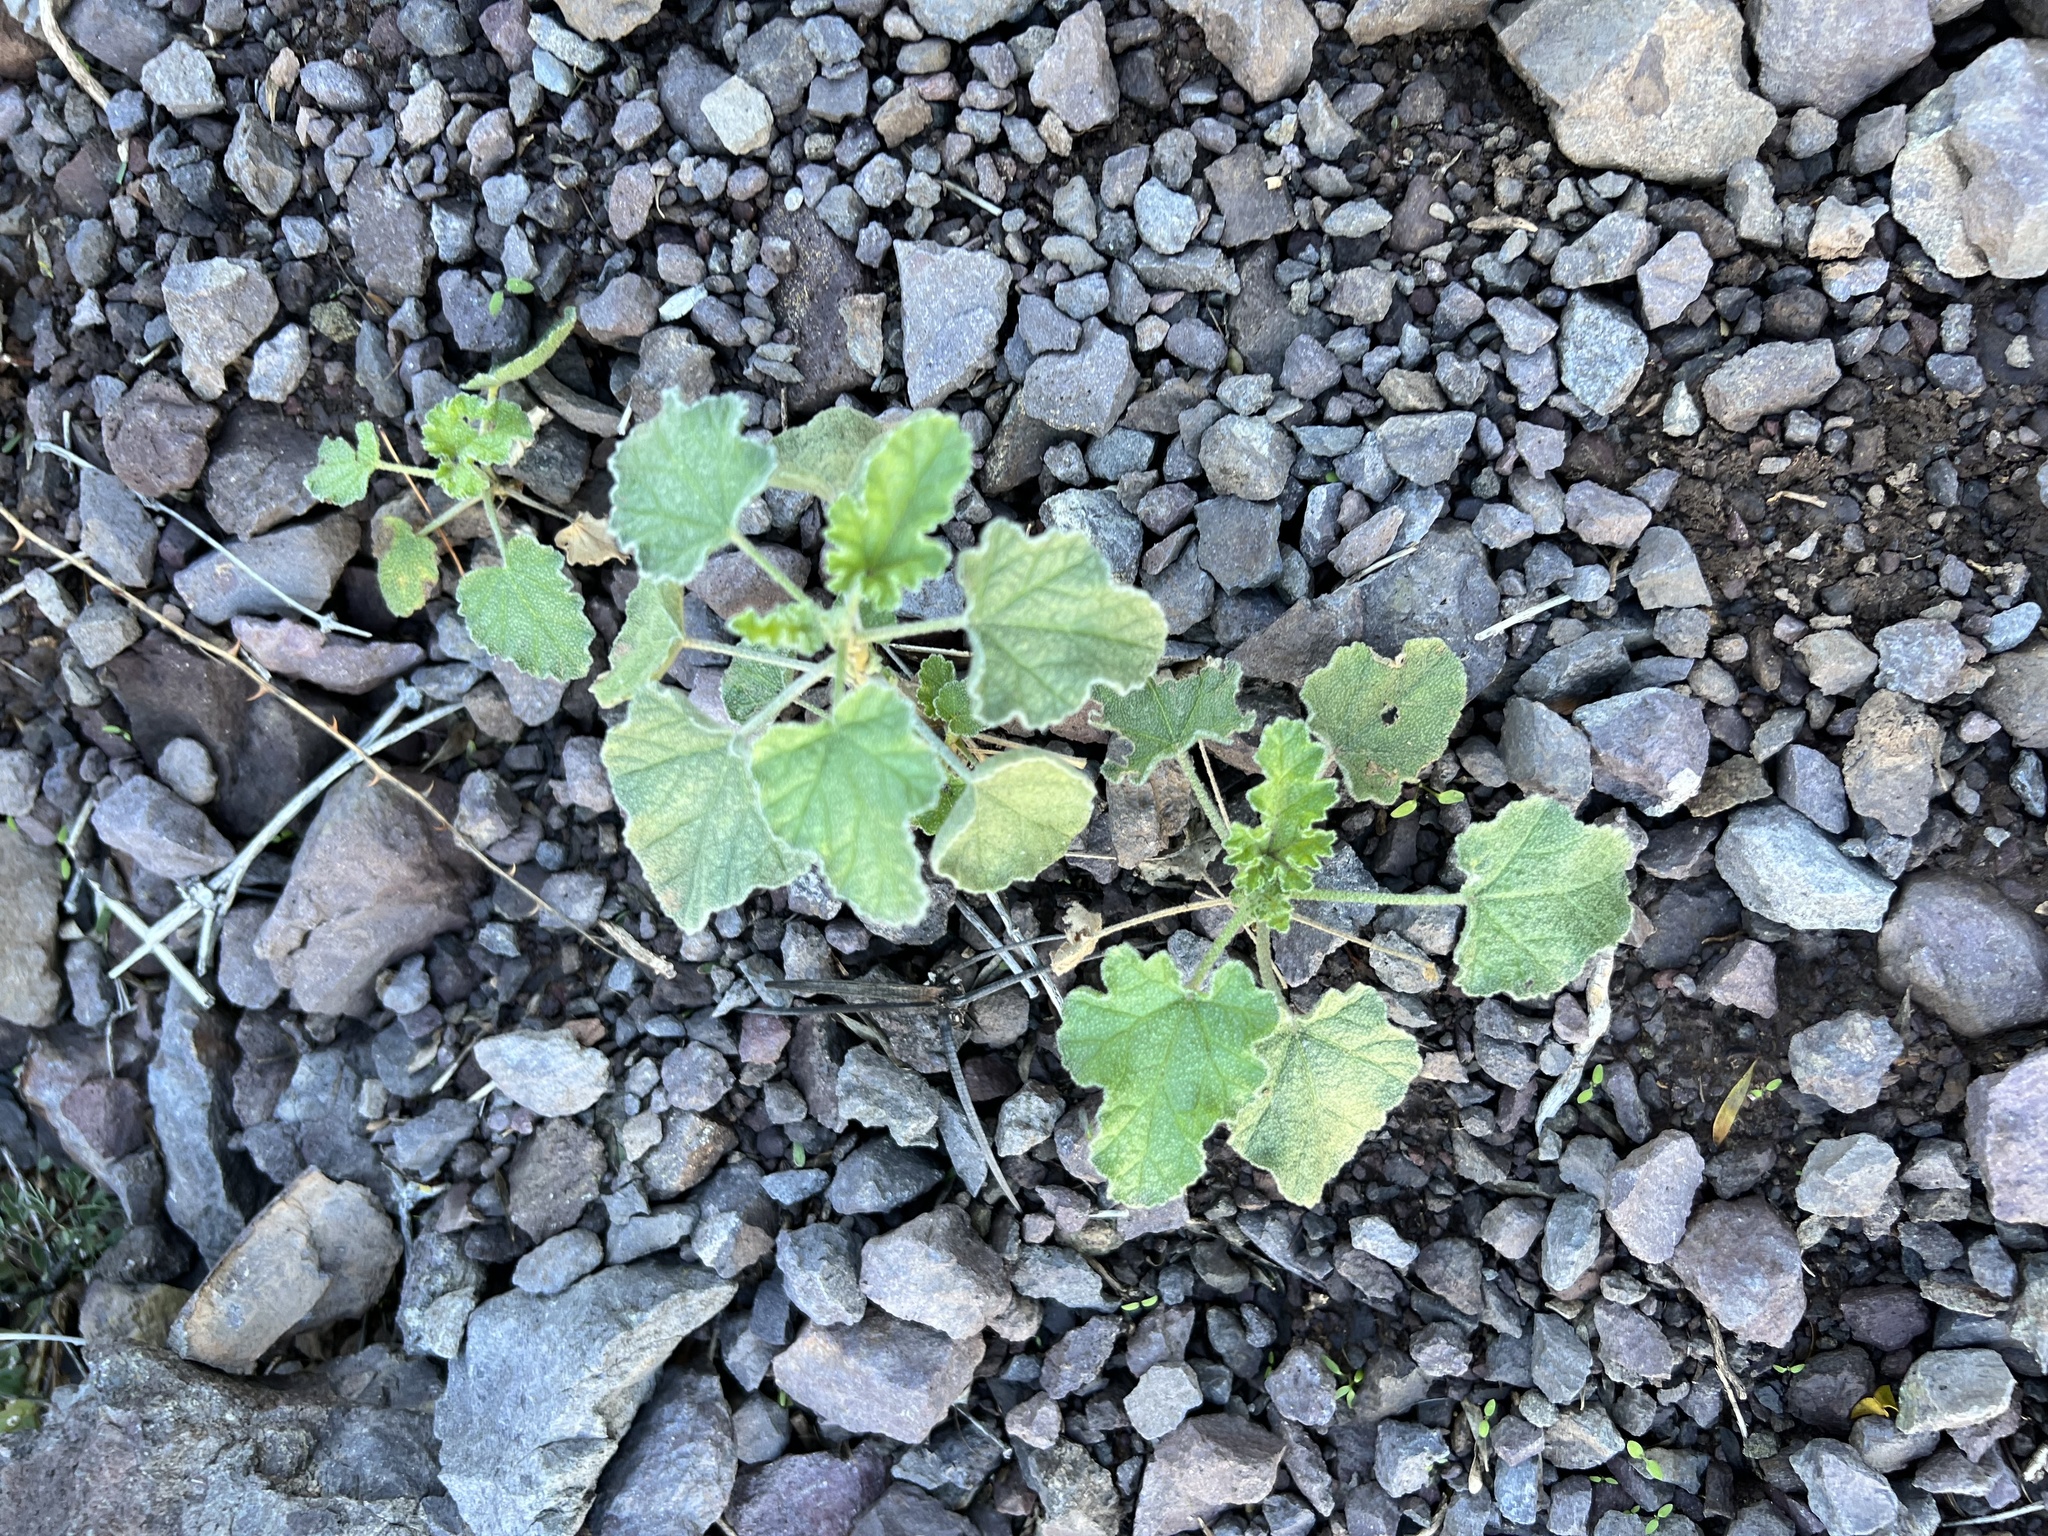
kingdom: Plantae
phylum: Tracheophyta
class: Magnoliopsida
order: Malvales
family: Malvaceae
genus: Sphaeralcea
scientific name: Sphaeralcea ambigua
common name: Apricot globe-mallow
